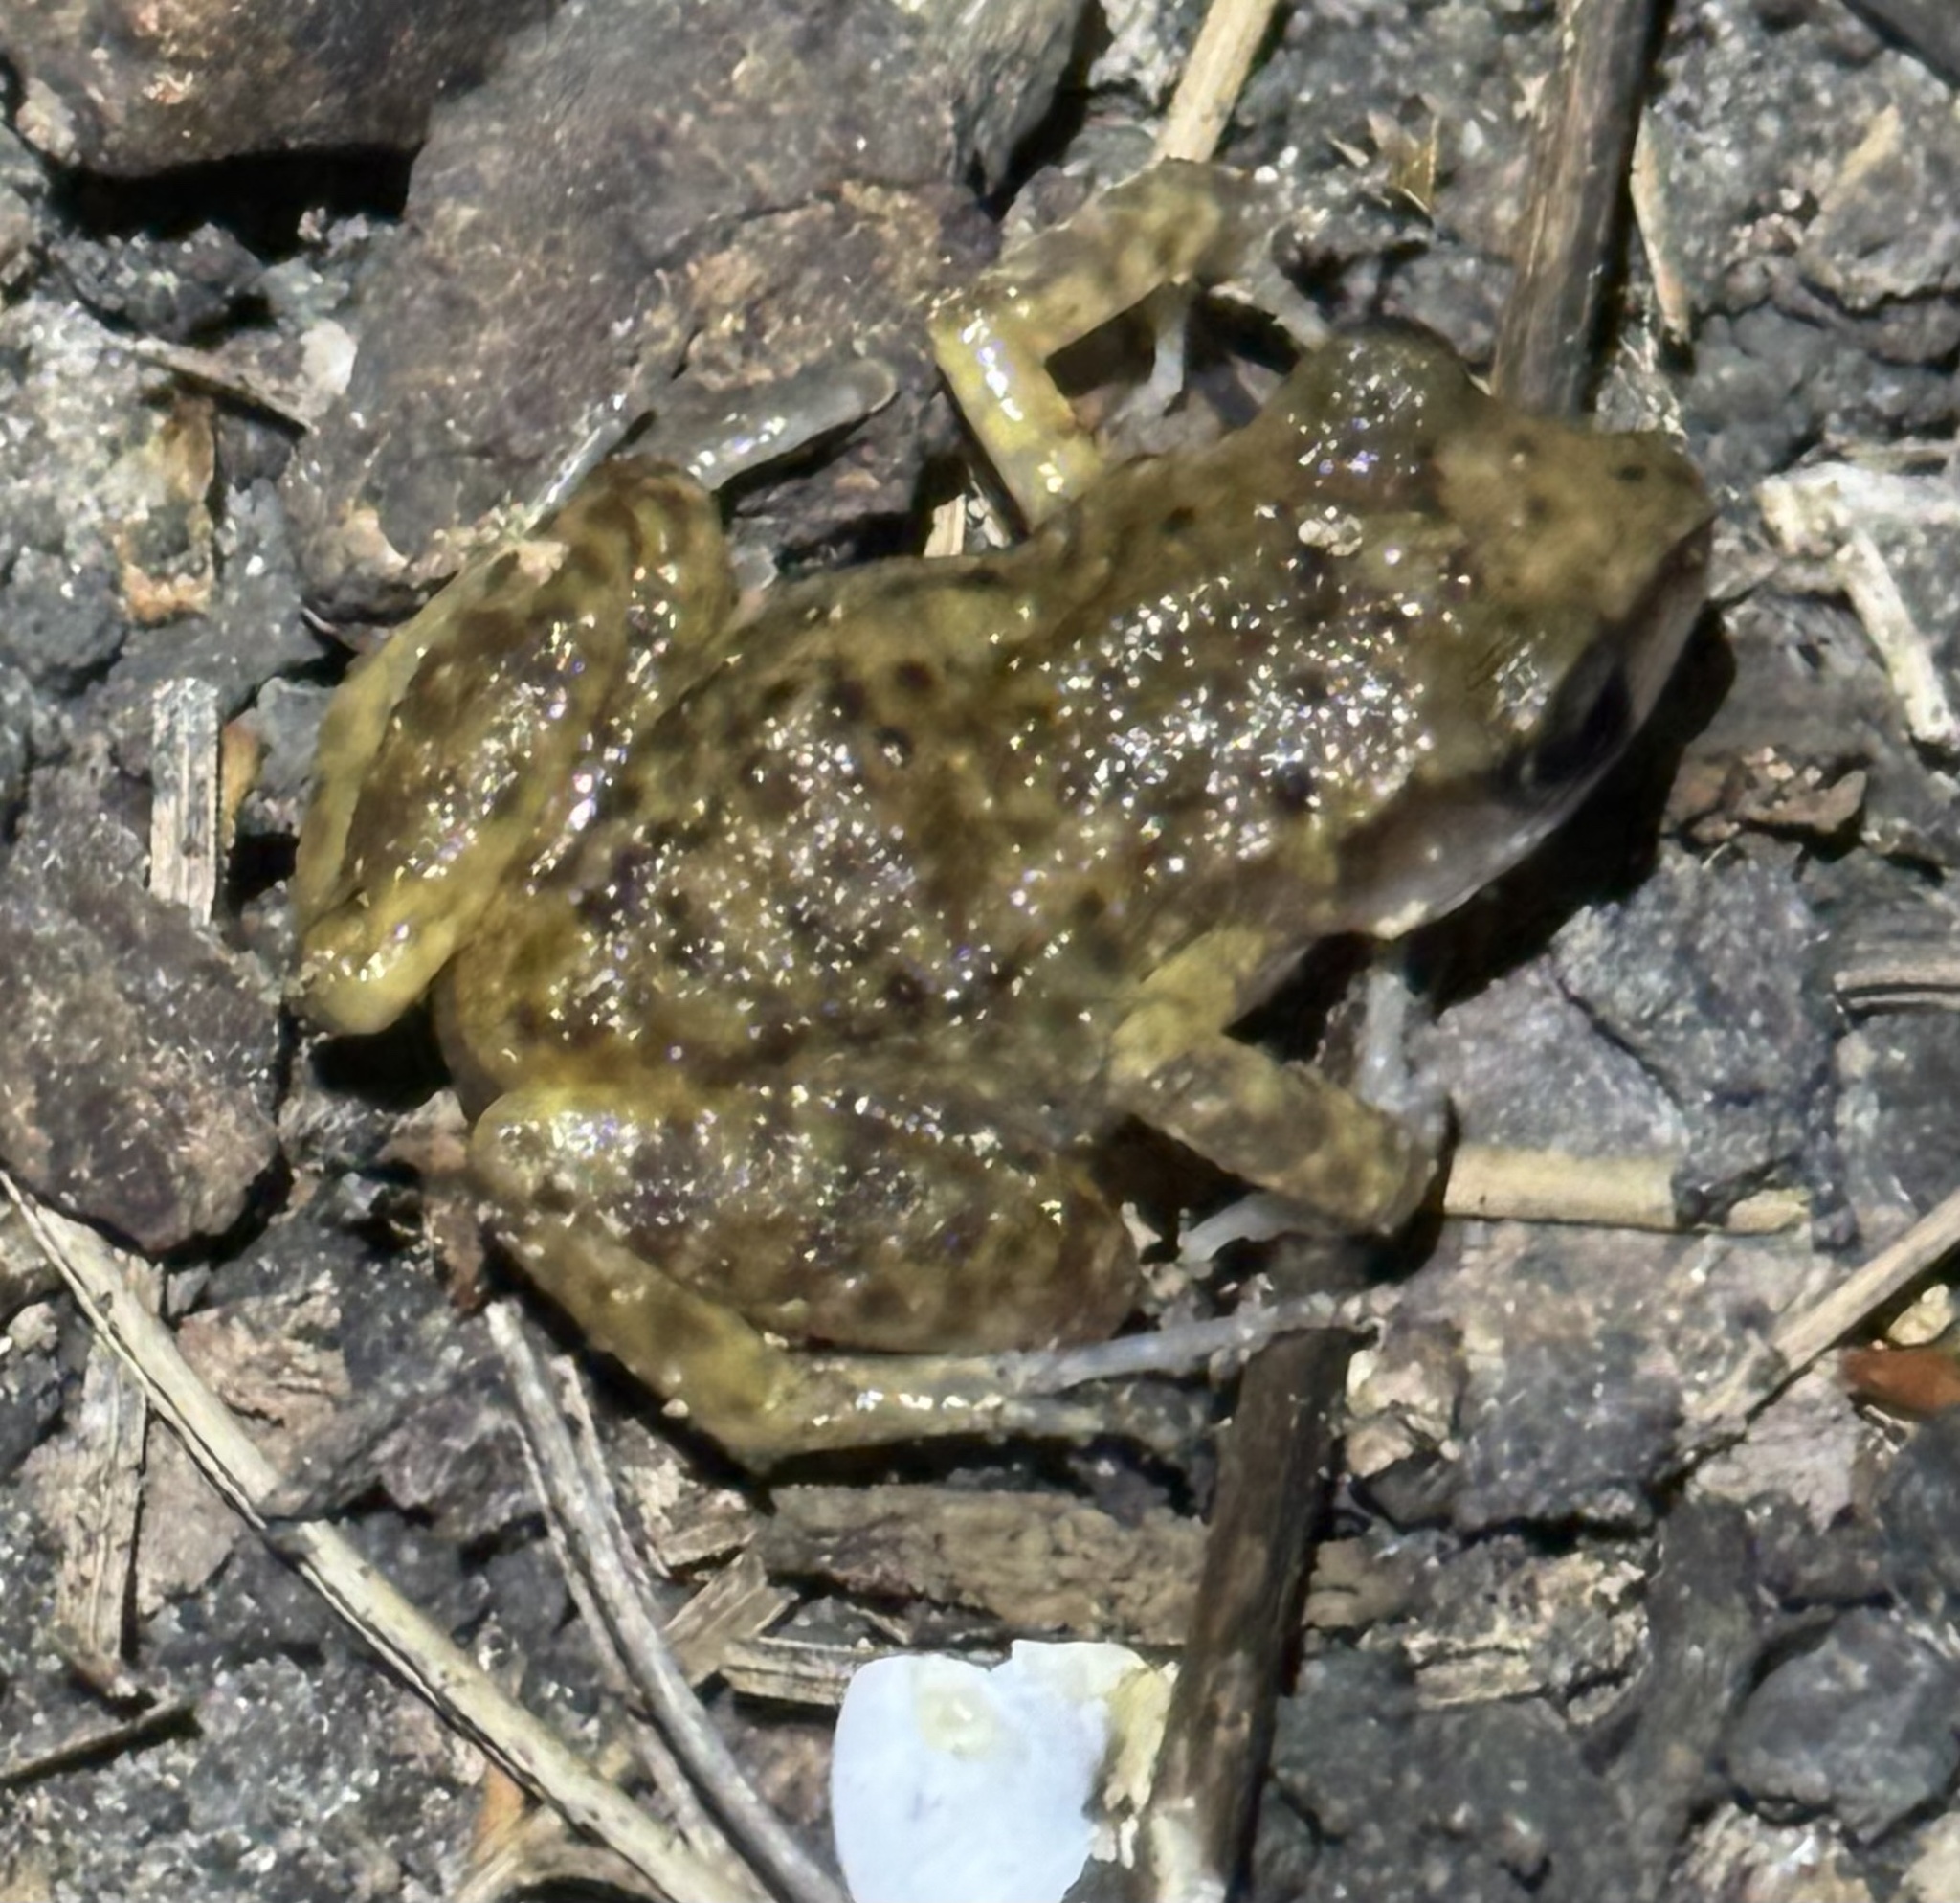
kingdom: Animalia
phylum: Chordata
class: Amphibia
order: Anura
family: Eleutherodactylidae
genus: Eleutherodactylus
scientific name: Eleutherodactylus campi
